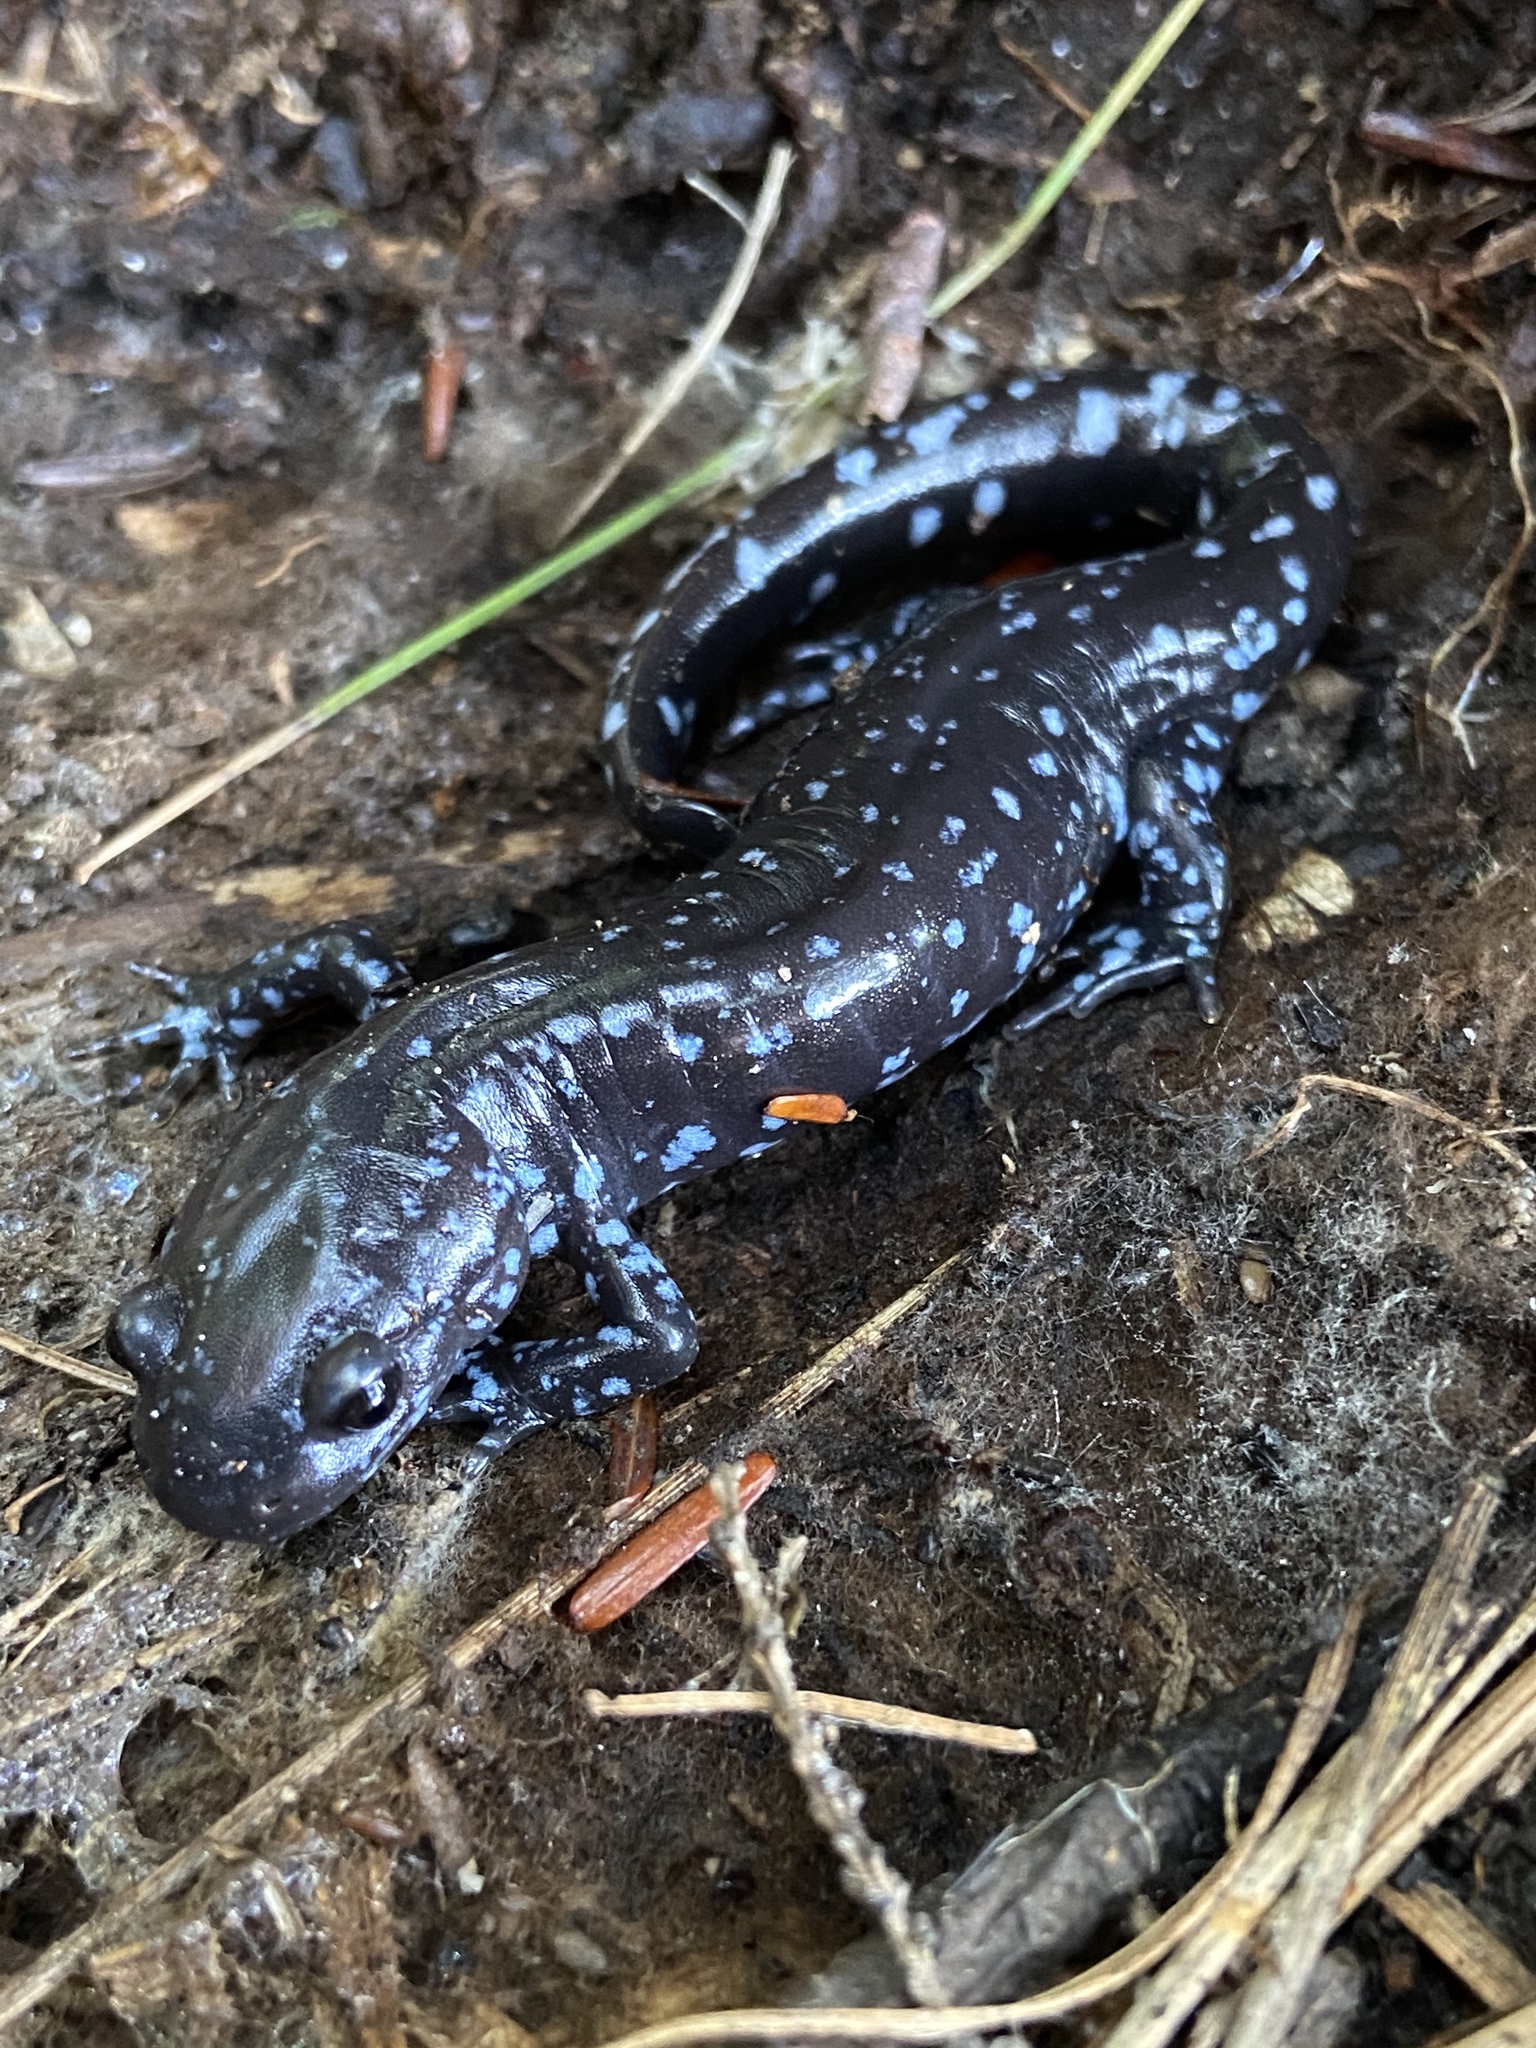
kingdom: Animalia
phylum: Chordata
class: Amphibia
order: Caudata
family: Ambystomatidae
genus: Ambystoma
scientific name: Ambystoma laterale
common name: Blue-spotted salamander
